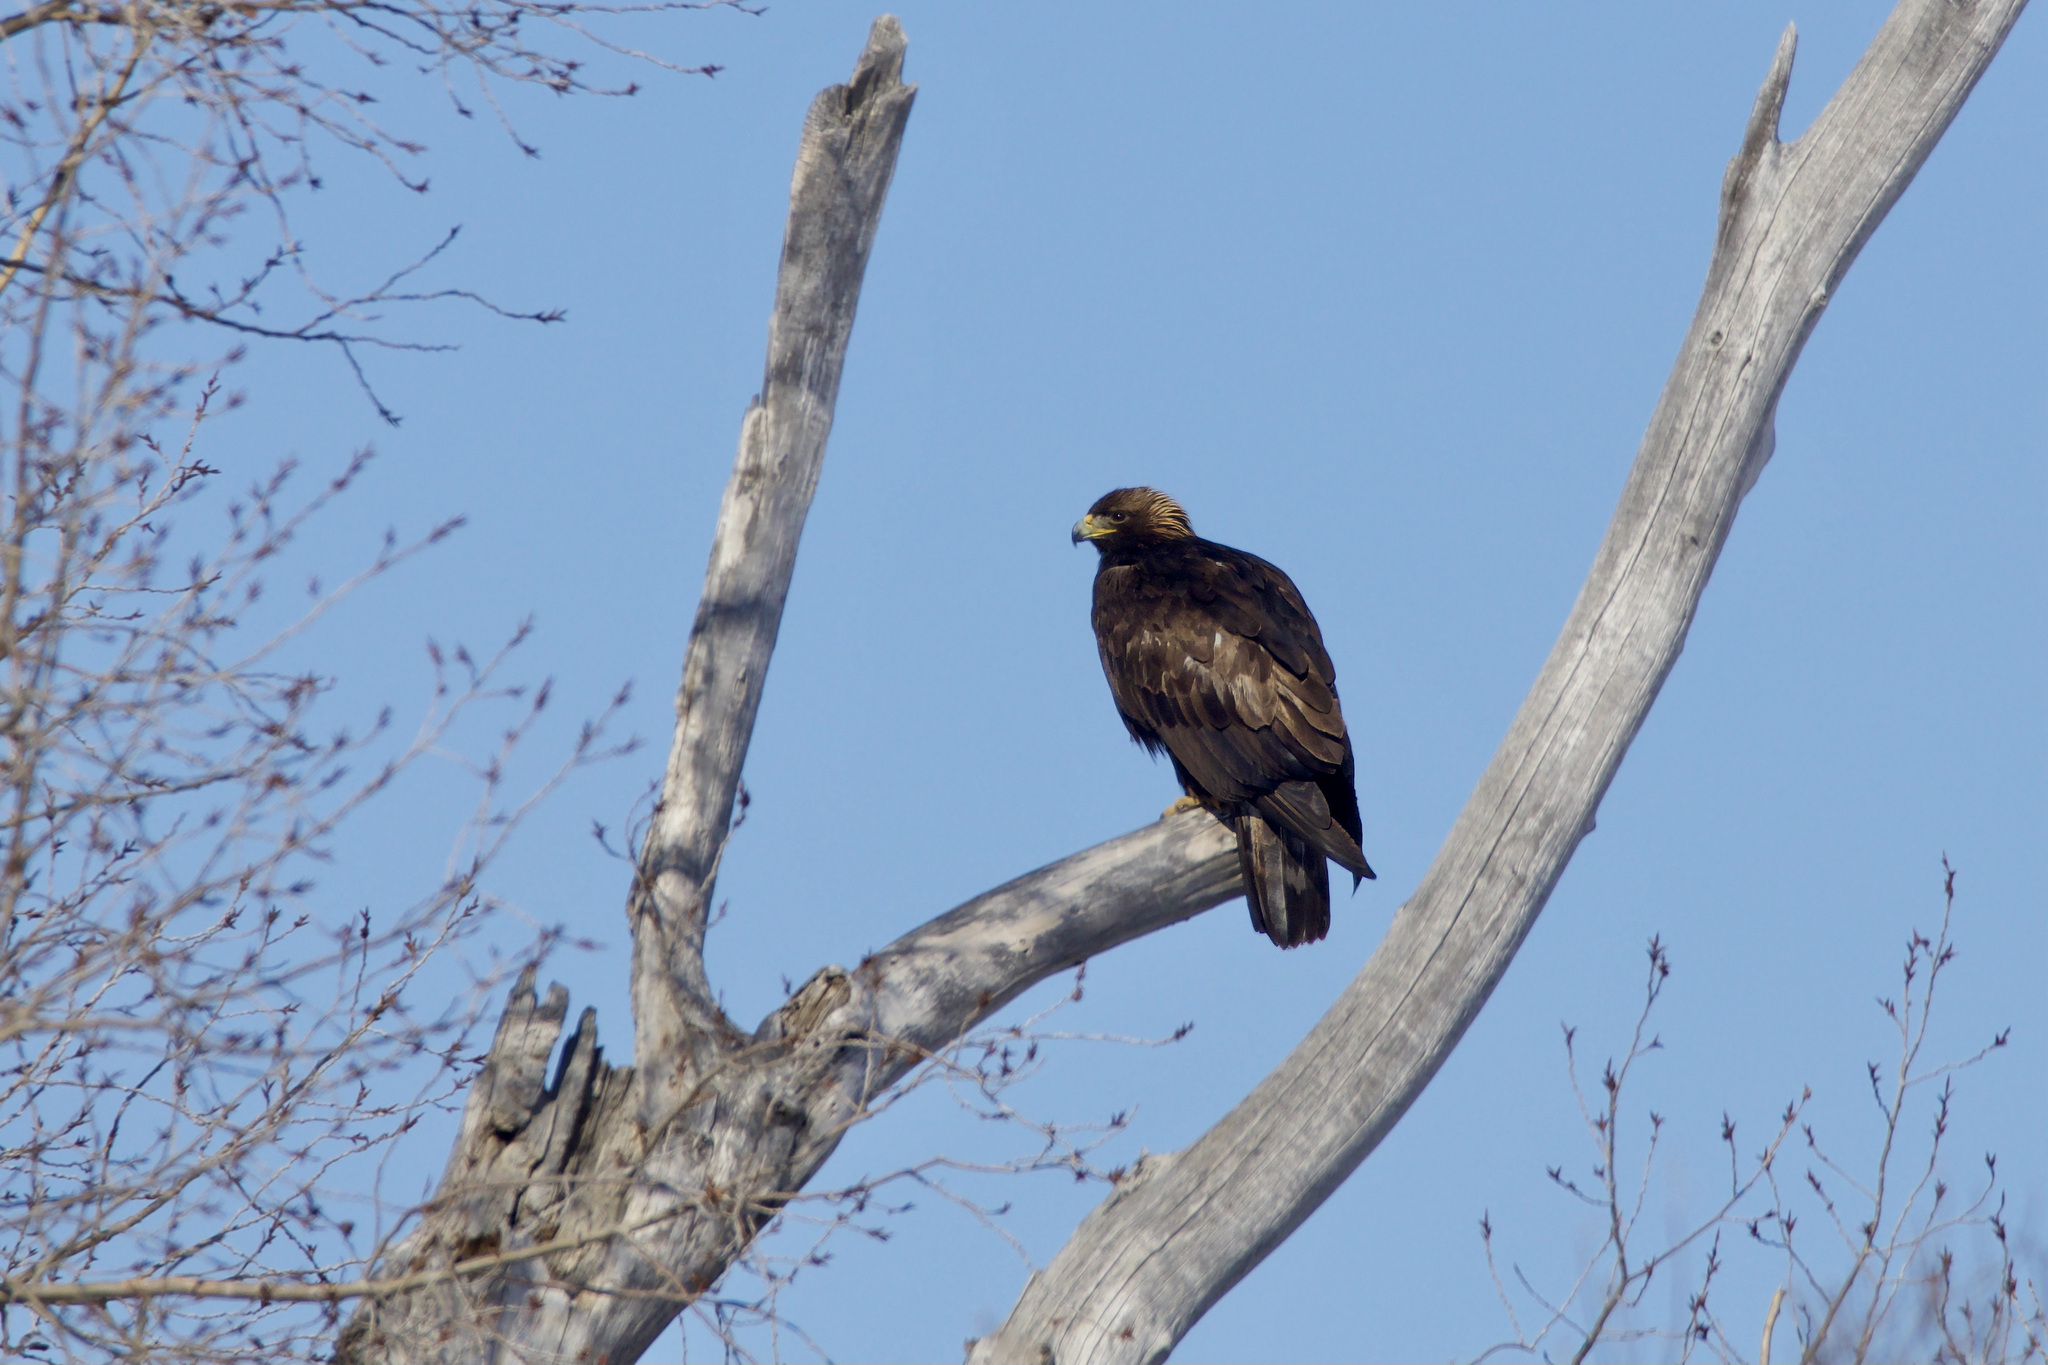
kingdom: Animalia
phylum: Chordata
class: Aves
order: Accipitriformes
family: Accipitridae
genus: Aquila
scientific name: Aquila chrysaetos
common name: Golden eagle
